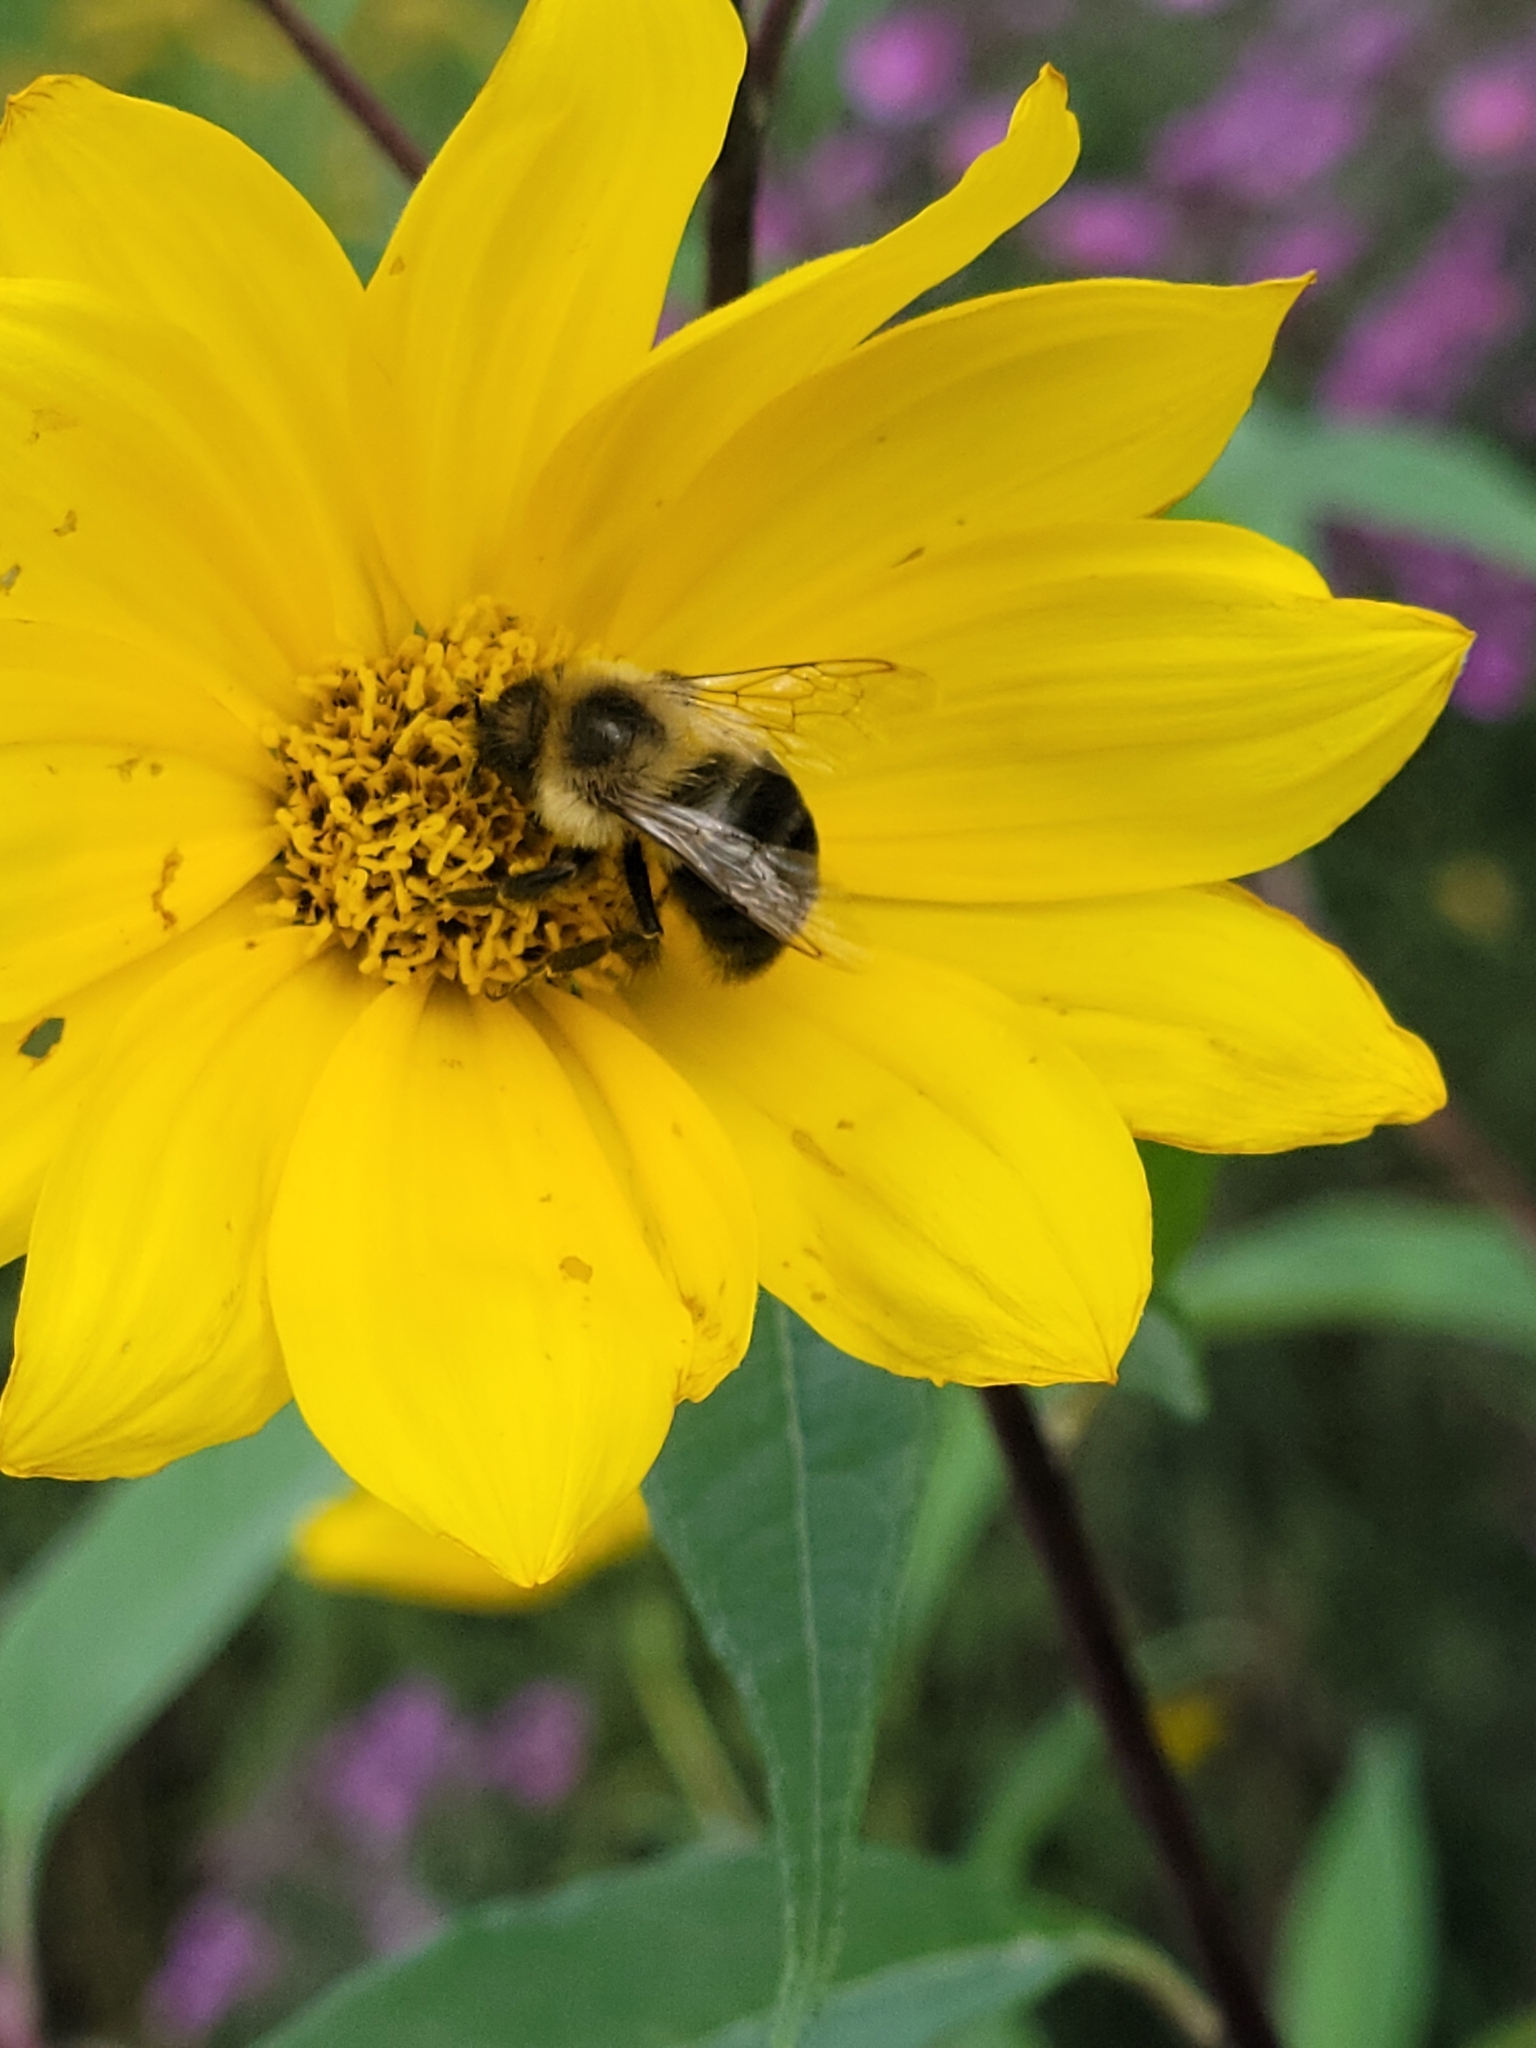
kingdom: Animalia
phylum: Arthropoda
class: Insecta
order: Hymenoptera
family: Apidae
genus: Bombus
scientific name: Bombus impatiens
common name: Common eastern bumble bee
